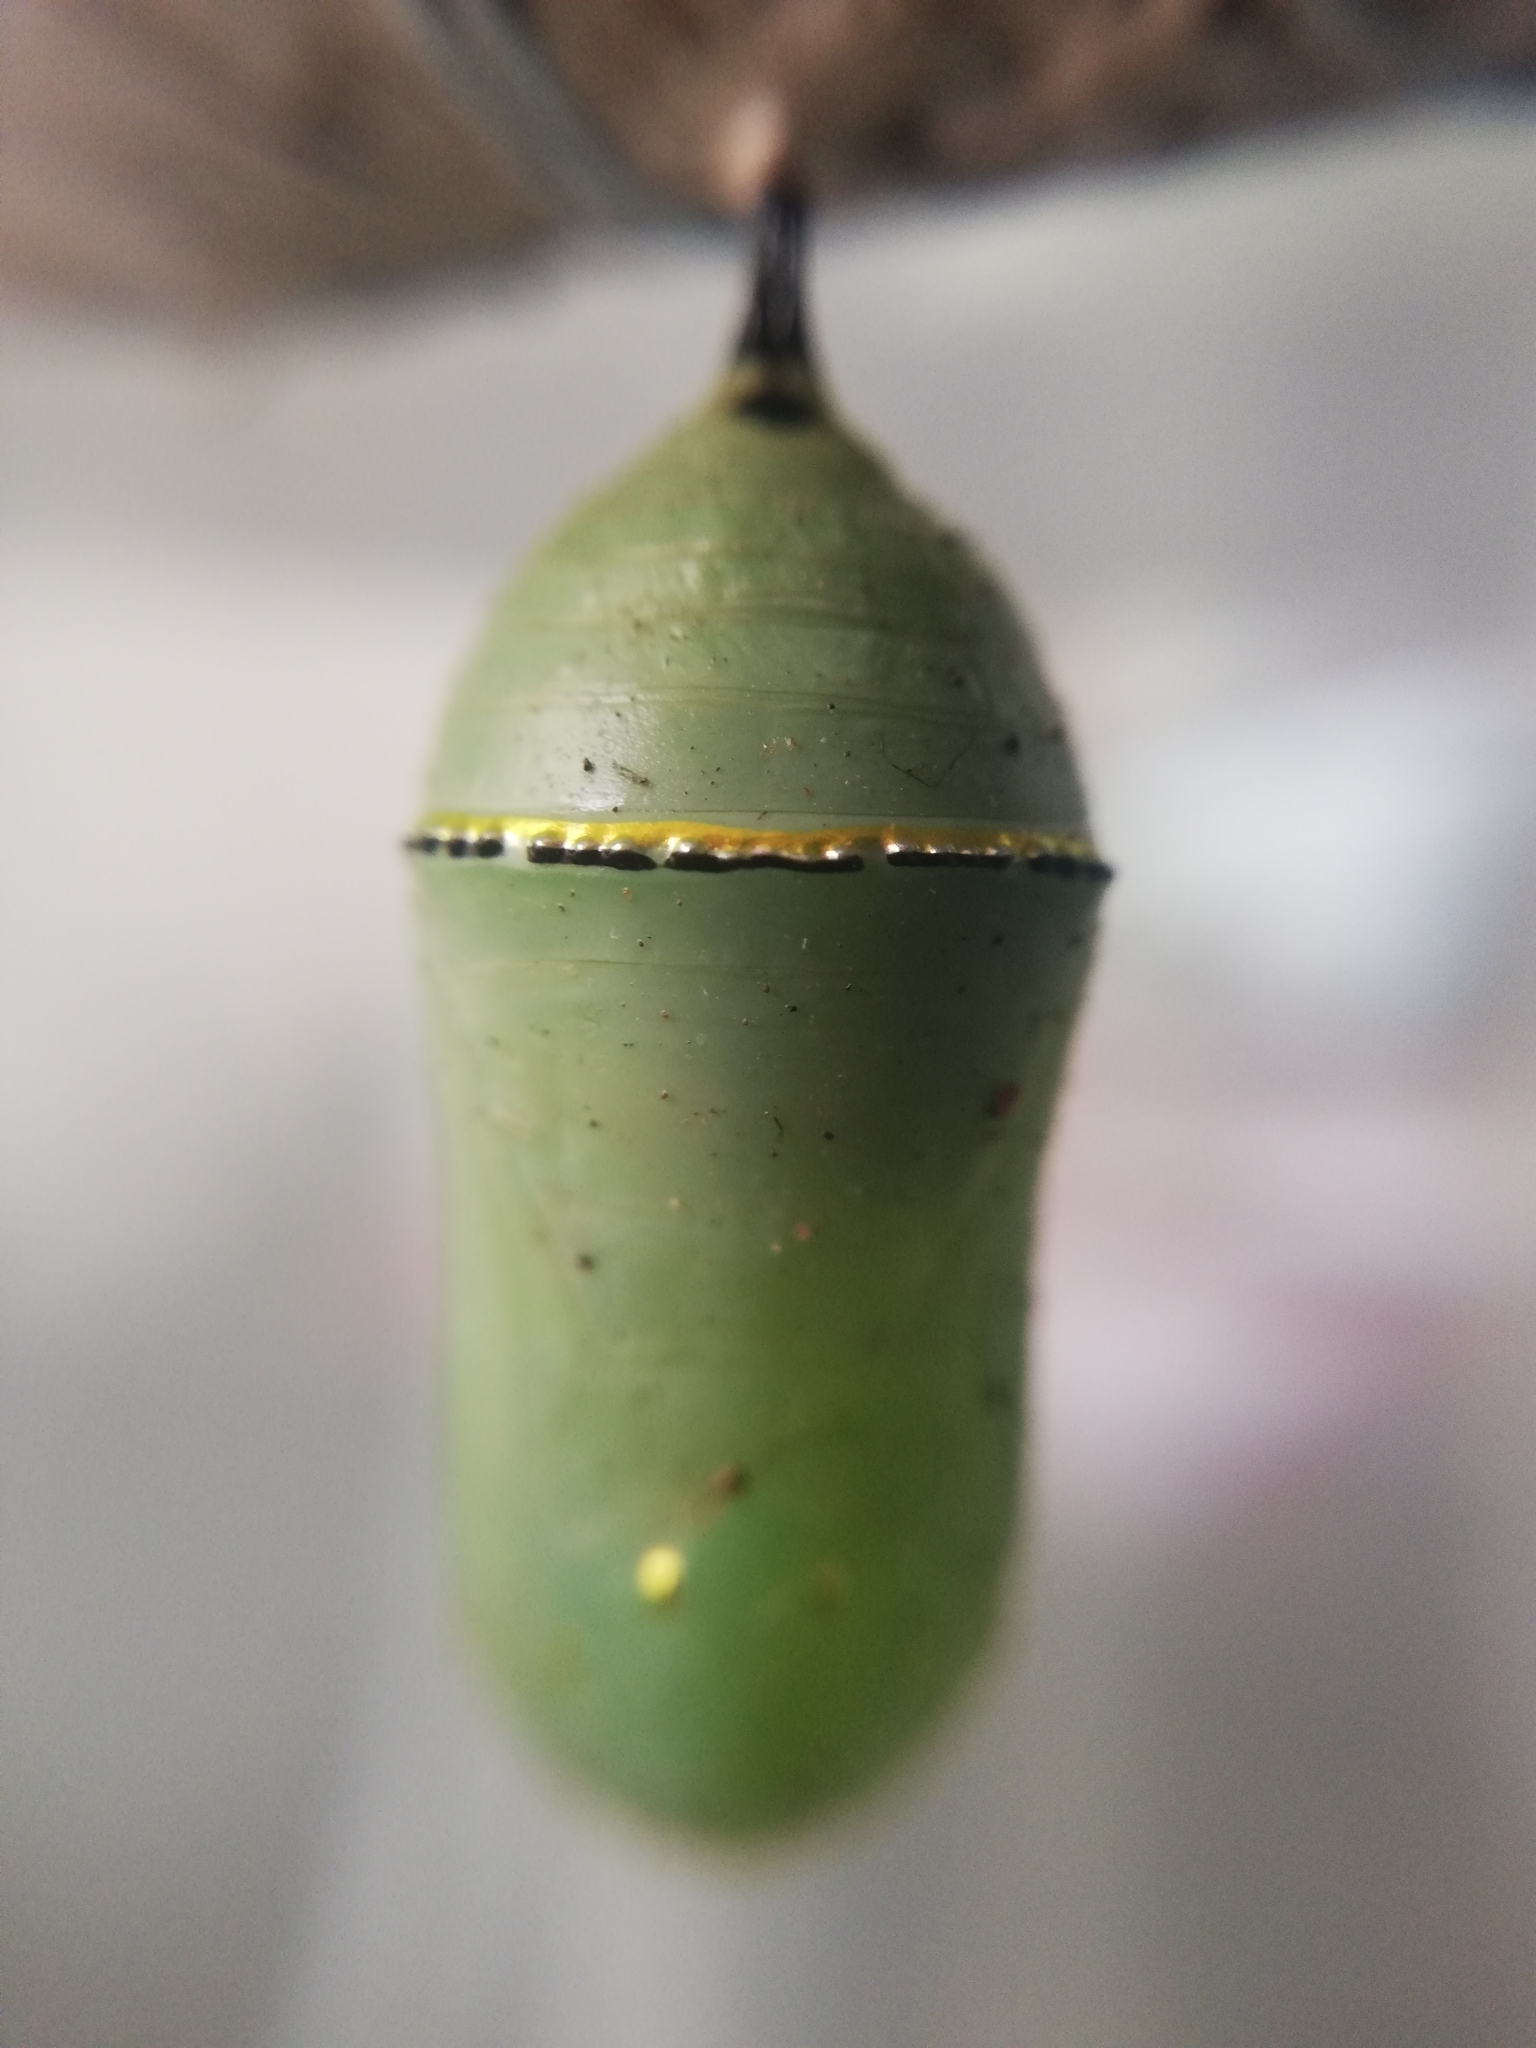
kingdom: Animalia
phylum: Arthropoda
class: Insecta
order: Lepidoptera
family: Nymphalidae
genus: Danaus
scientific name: Danaus plexippus
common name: Monarch
